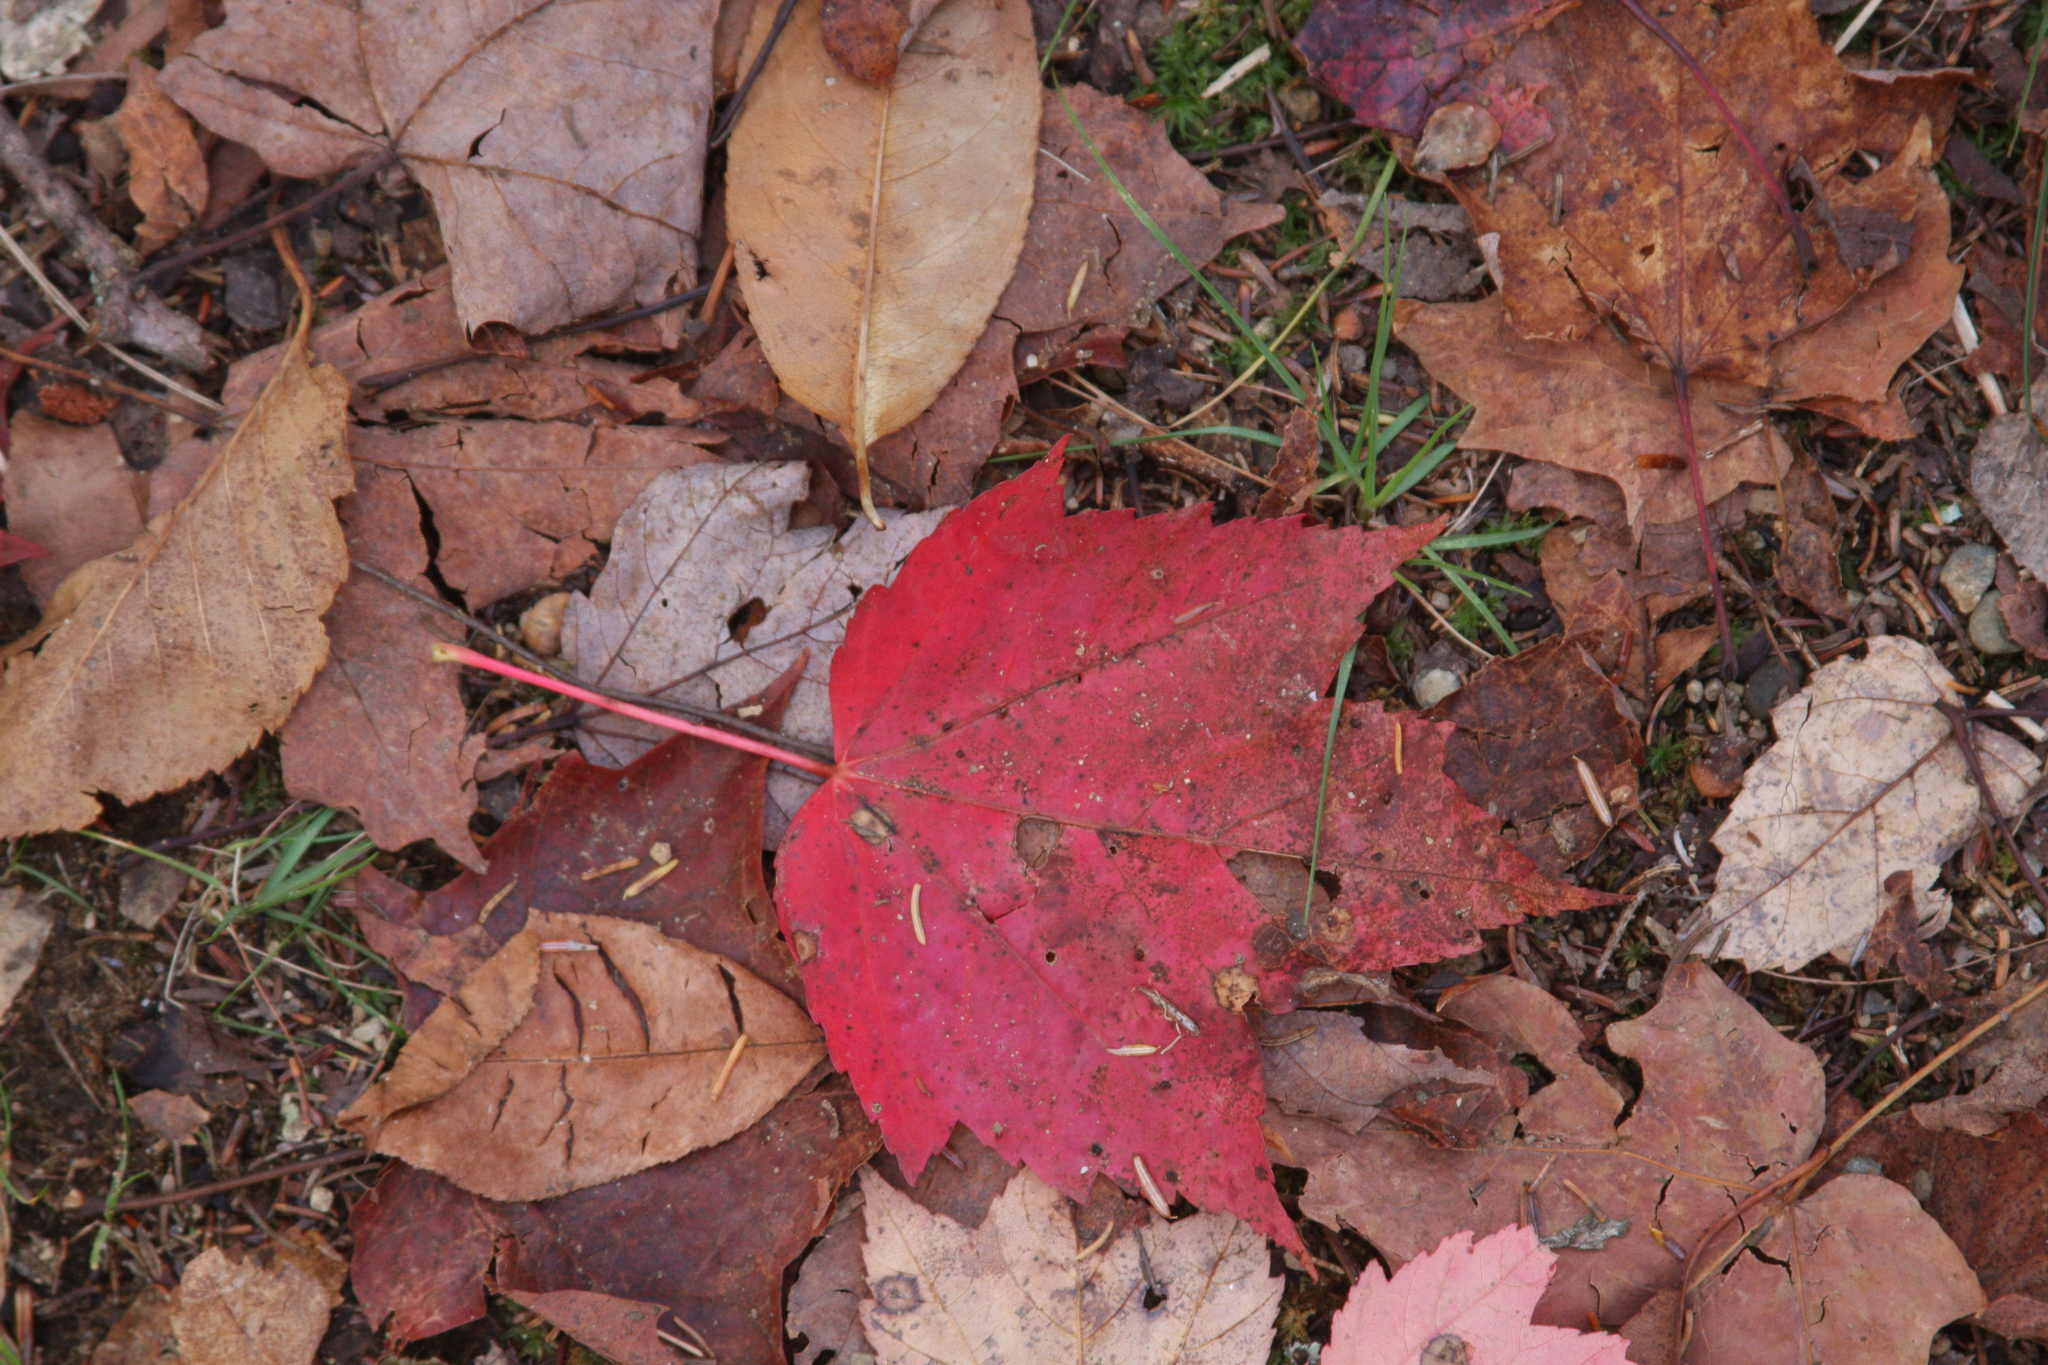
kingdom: Plantae
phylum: Tracheophyta
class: Magnoliopsida
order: Sapindales
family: Sapindaceae
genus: Acer
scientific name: Acer rubrum
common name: Red maple
